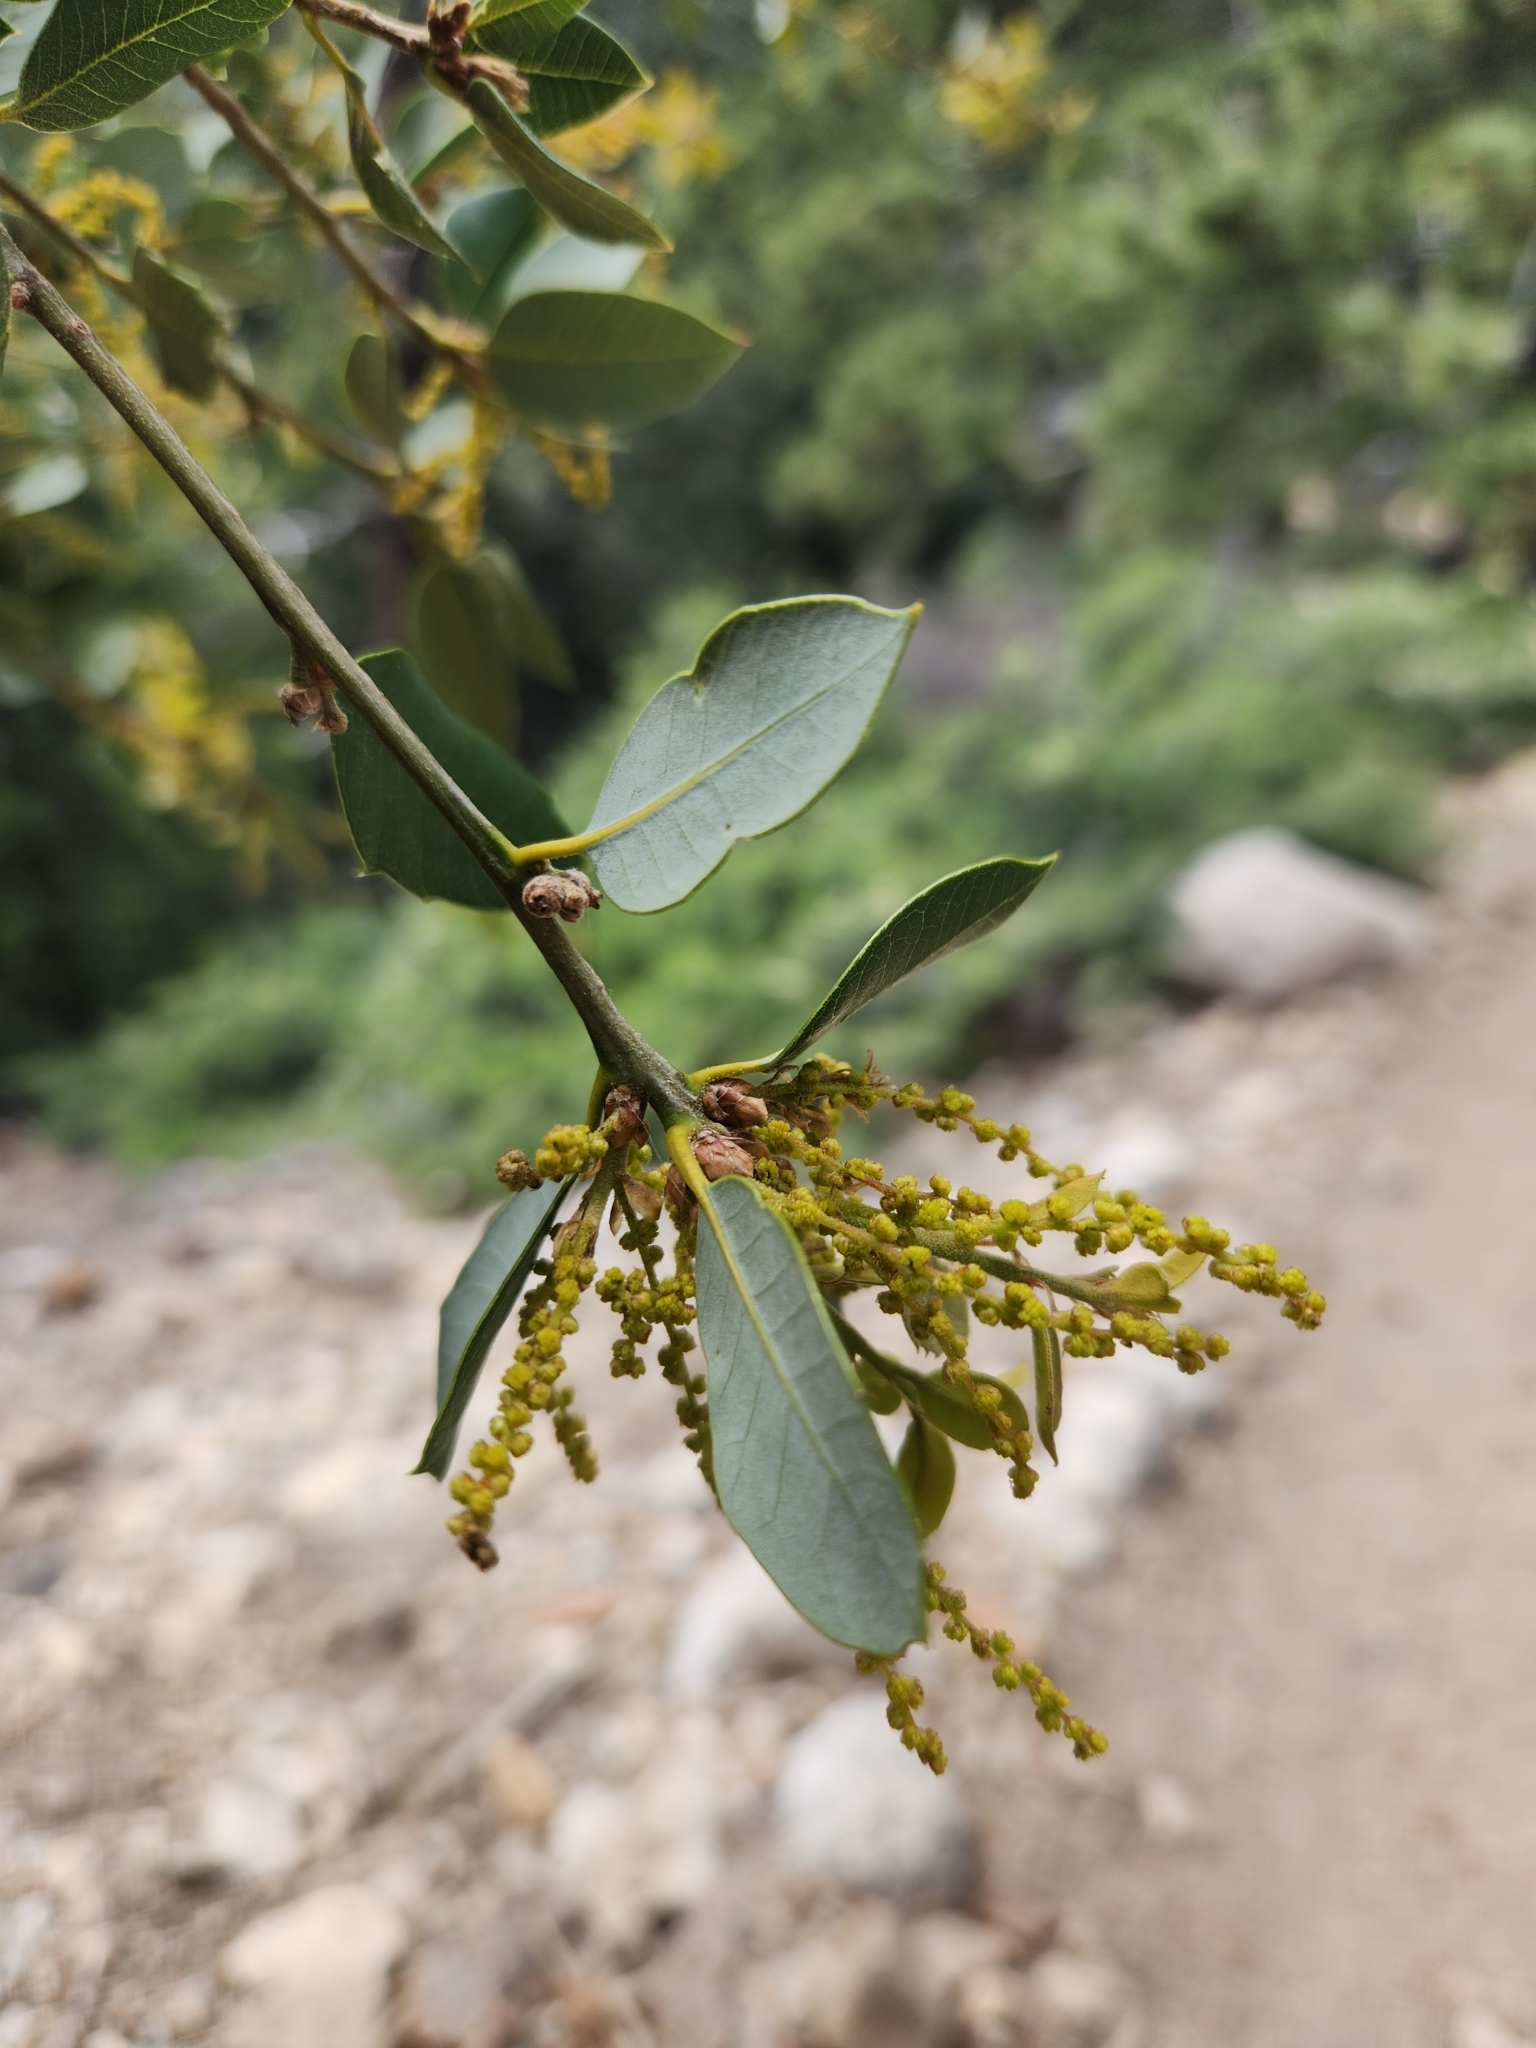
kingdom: Plantae
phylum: Tracheophyta
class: Magnoliopsida
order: Fagales
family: Fagaceae
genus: Quercus
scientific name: Quercus chrysolepis
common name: Canyon live oak
